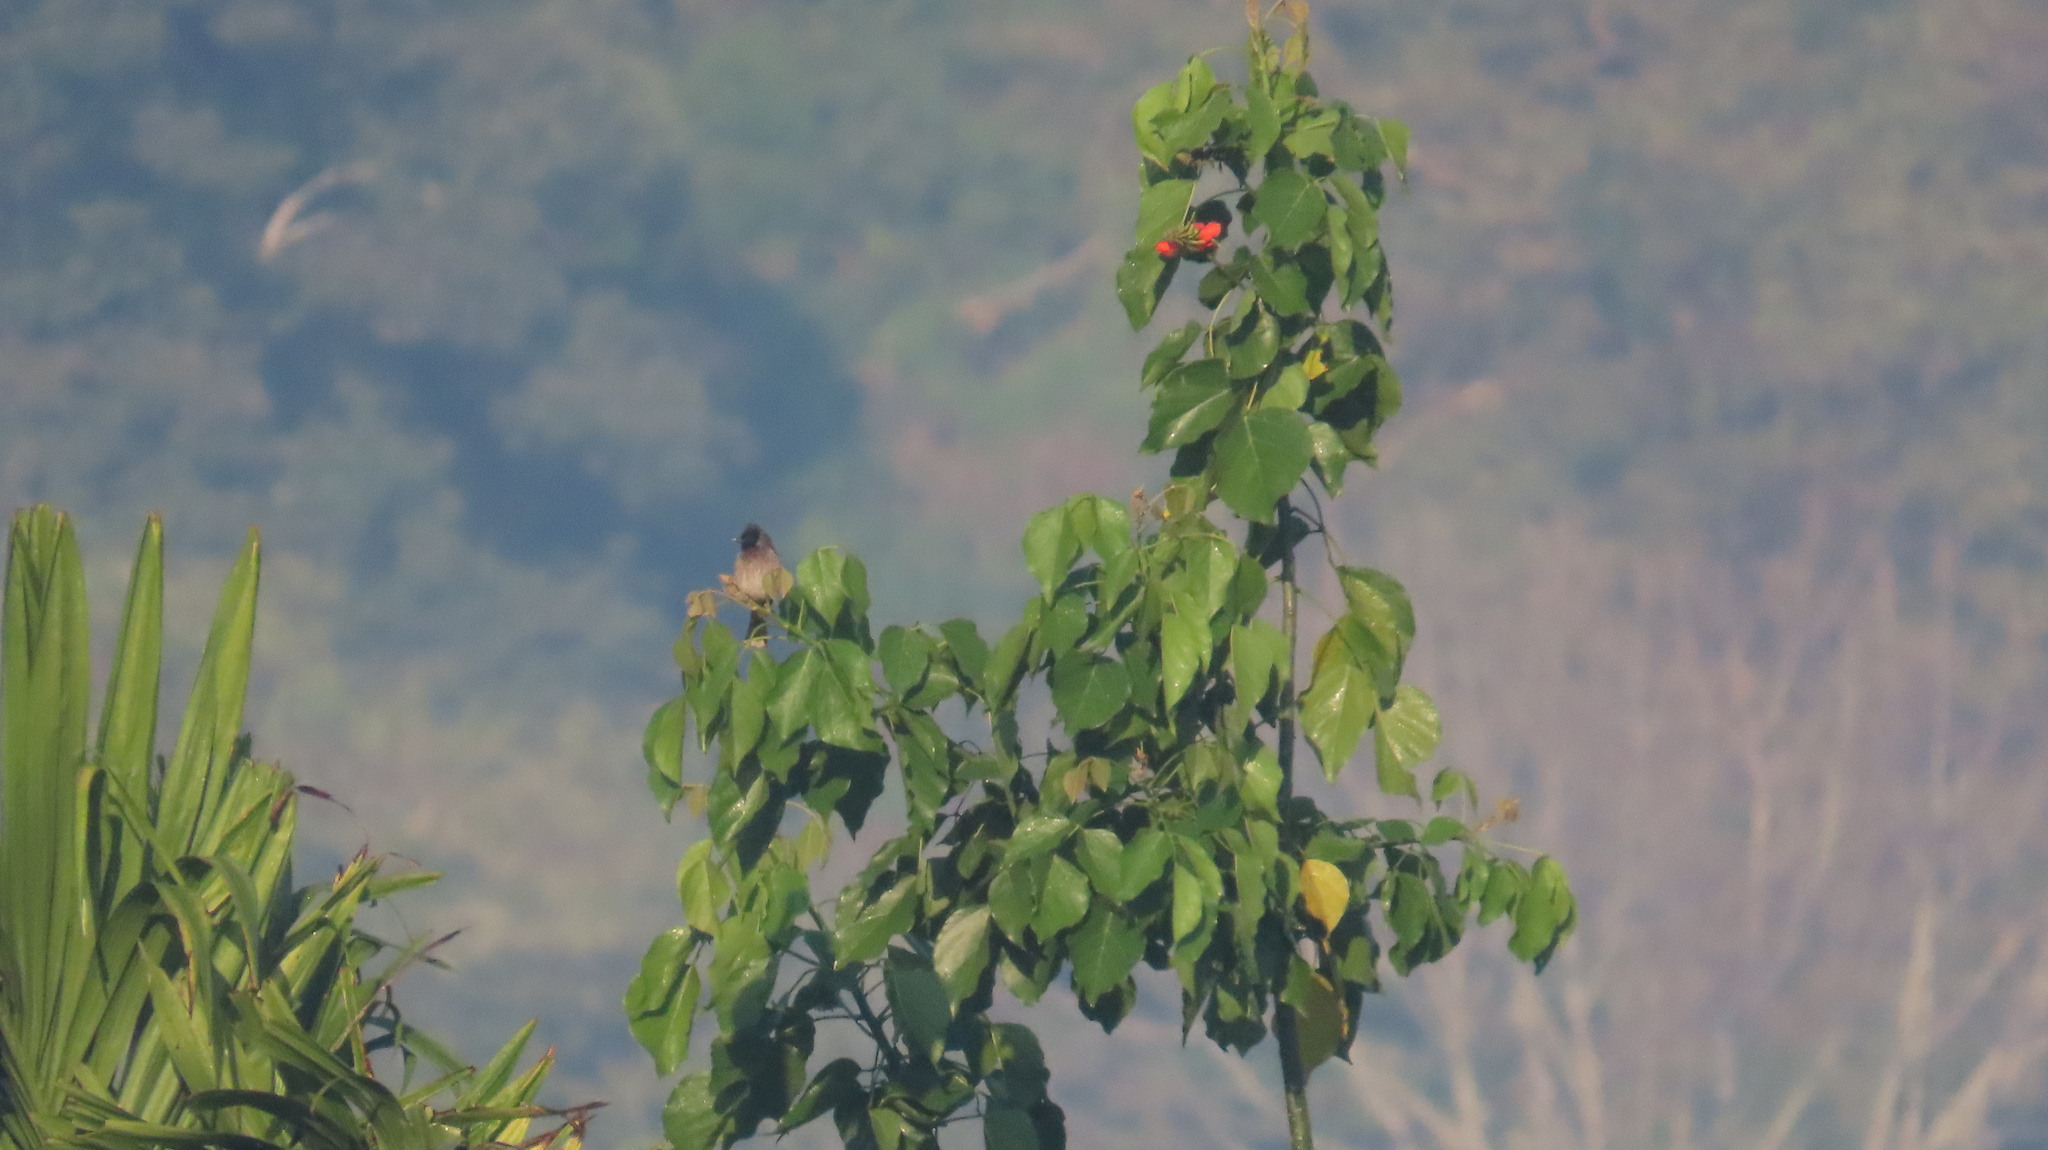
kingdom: Animalia
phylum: Chordata
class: Aves
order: Passeriformes
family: Pycnonotidae
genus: Pycnonotus
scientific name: Pycnonotus cafer
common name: Red-vented bulbul
